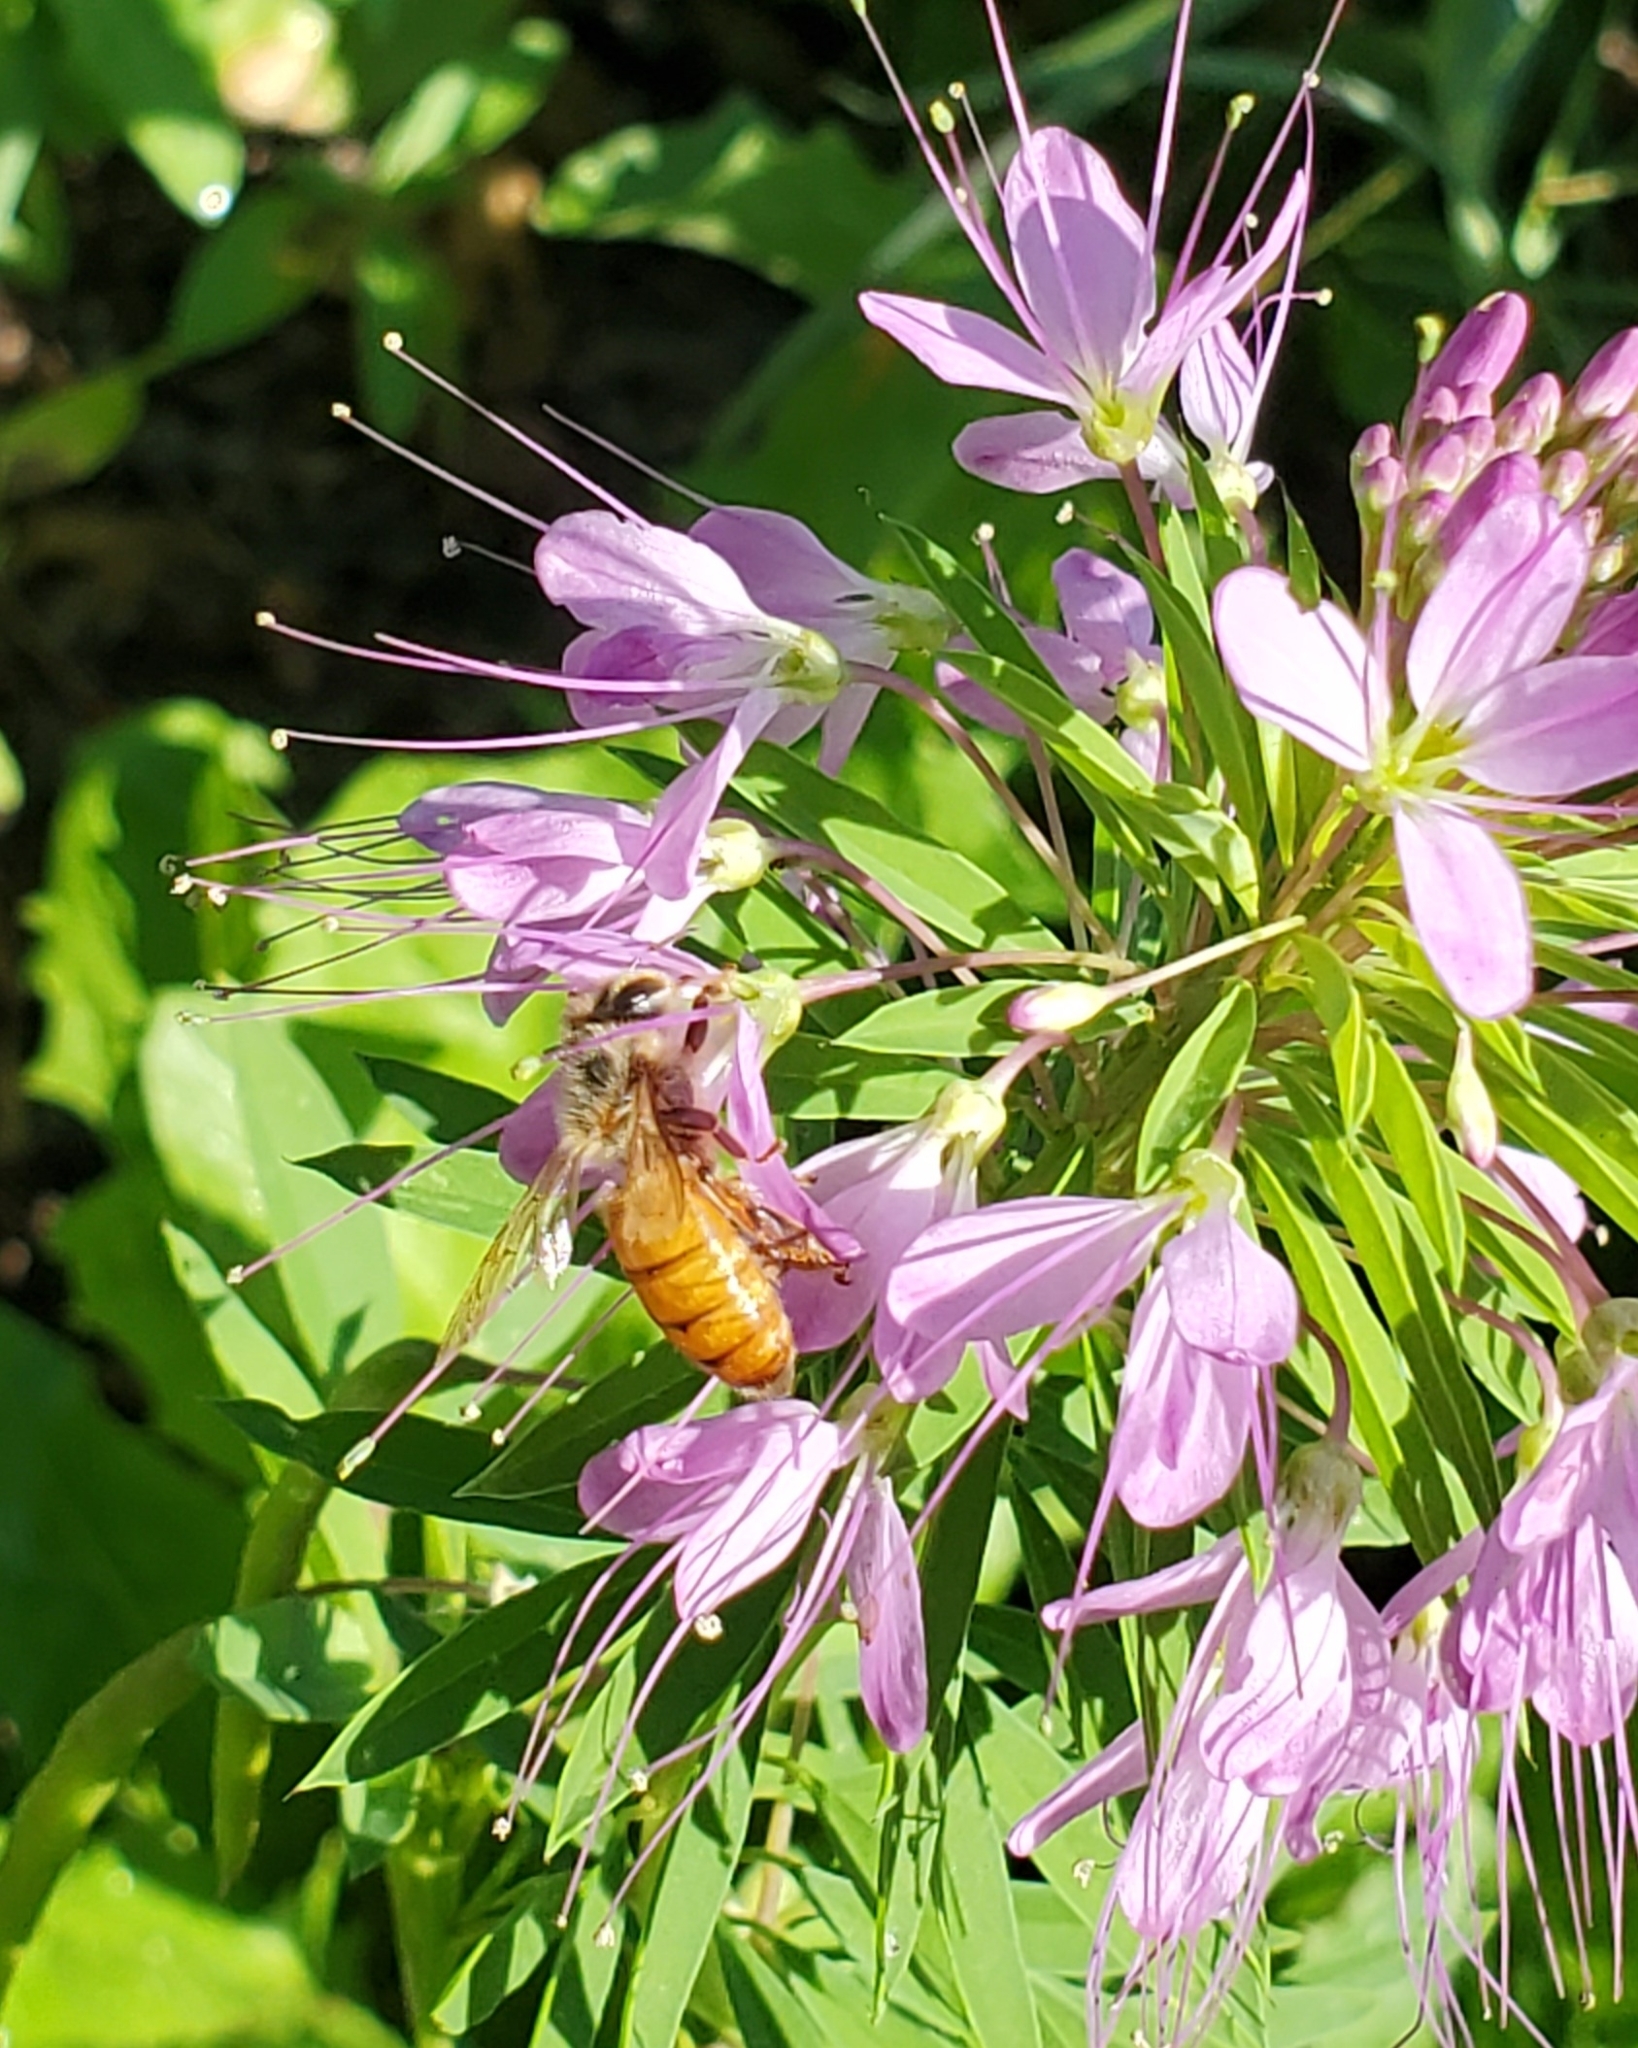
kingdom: Animalia
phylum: Arthropoda
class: Insecta
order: Hymenoptera
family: Apidae
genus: Apis
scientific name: Apis mellifera
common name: Honey bee
